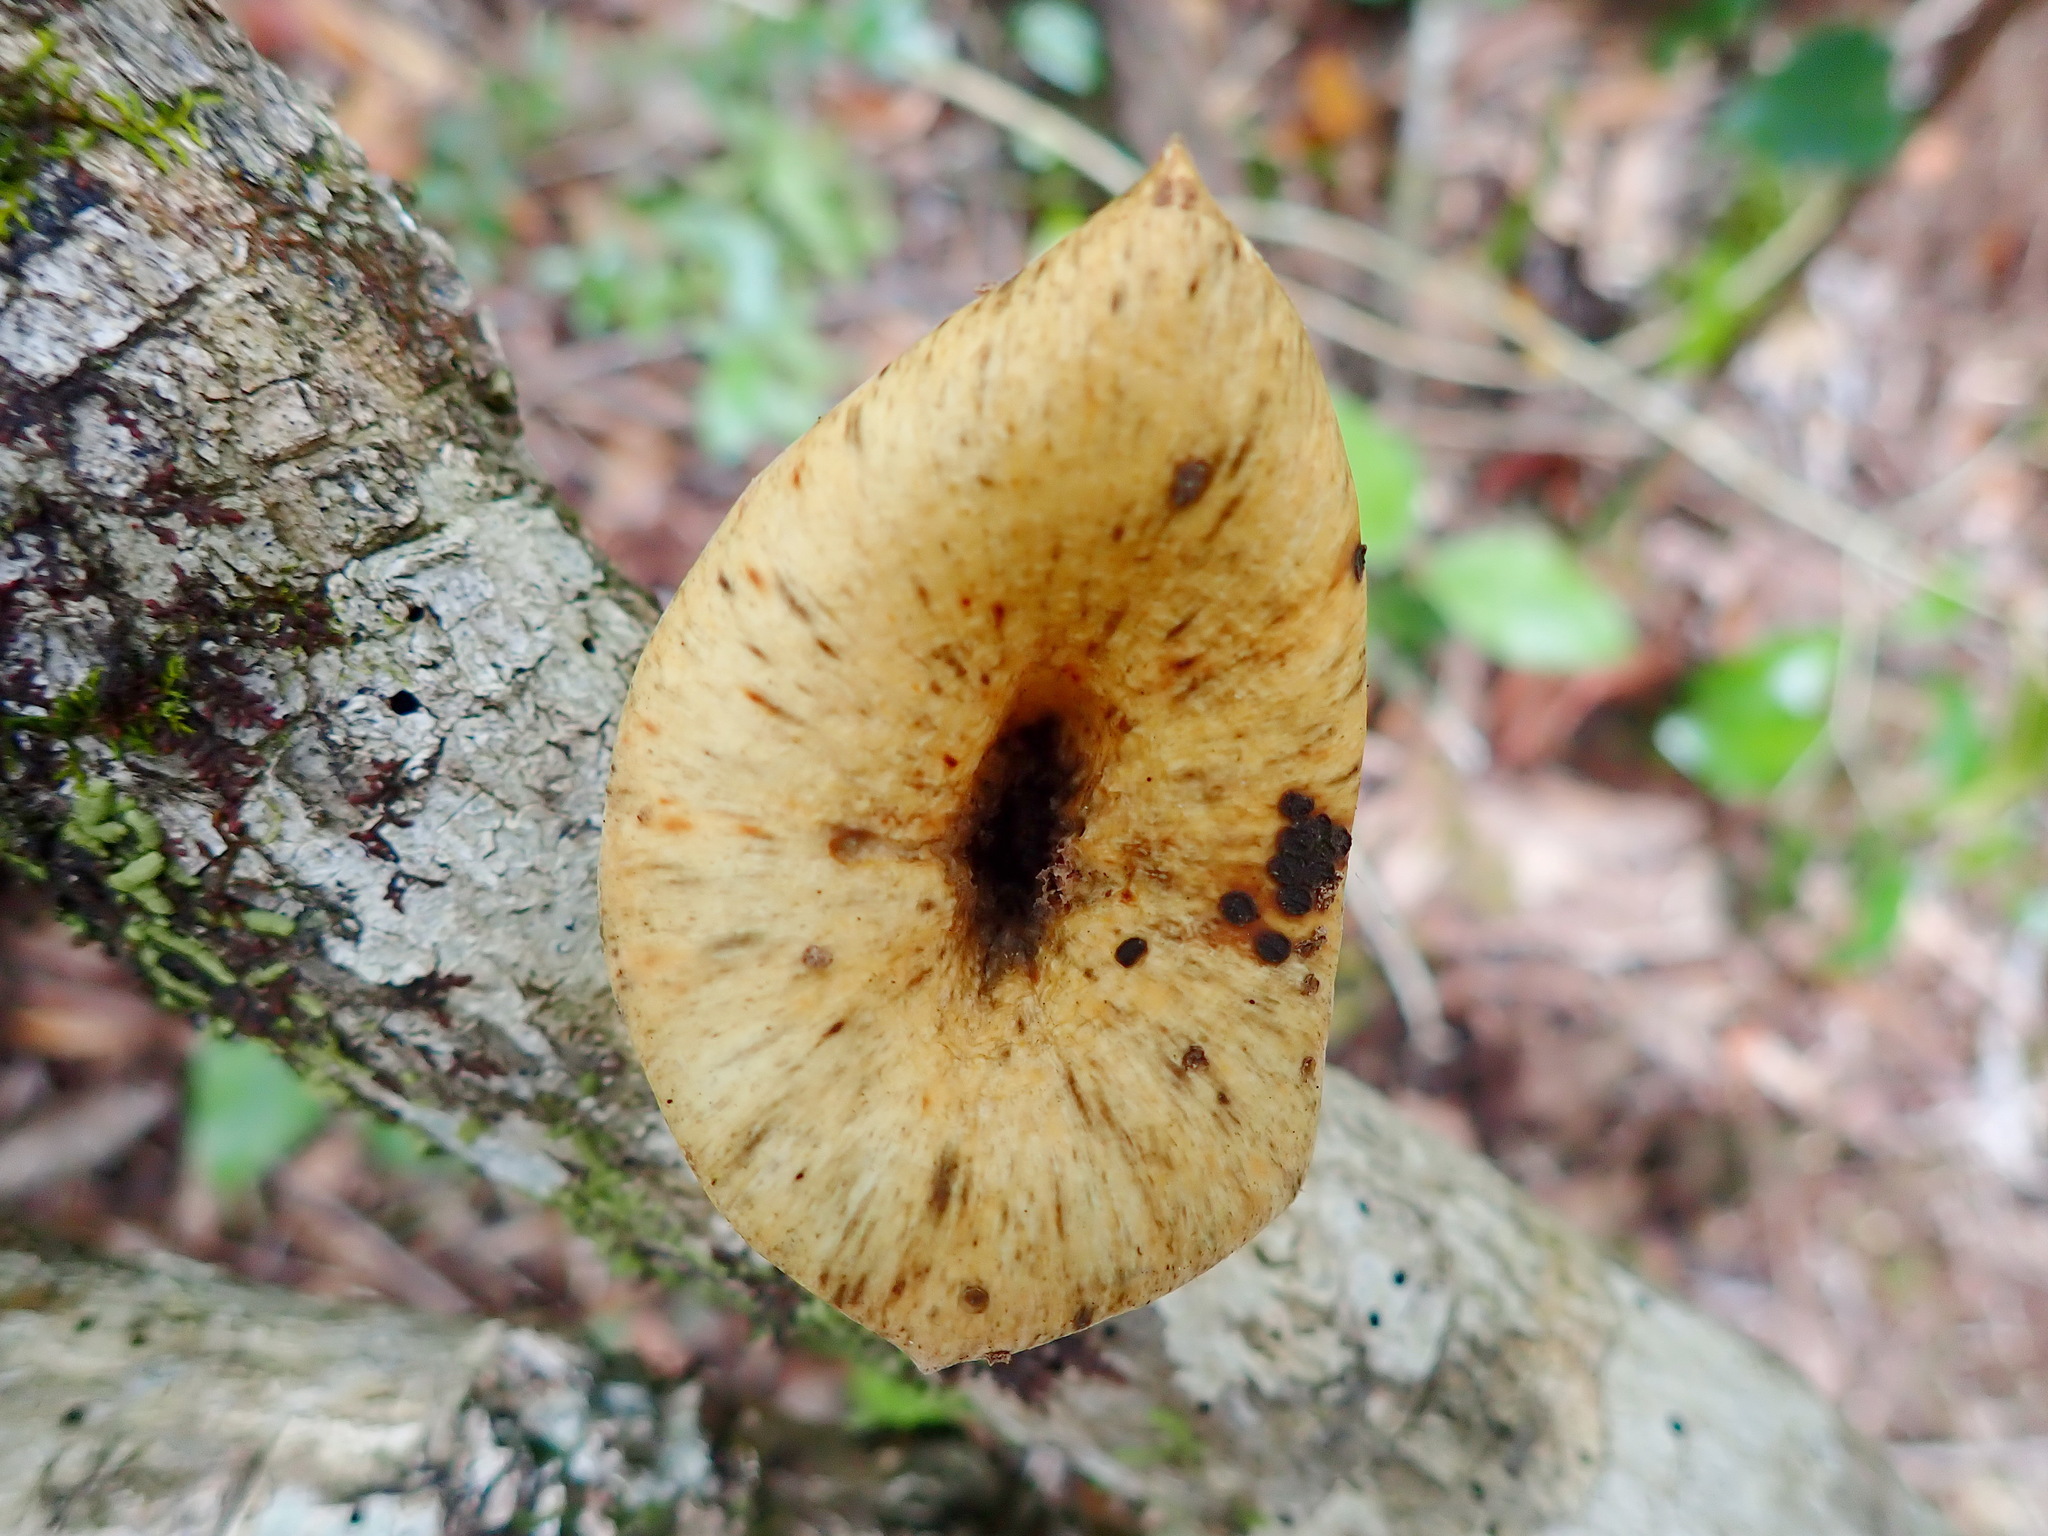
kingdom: Fungi
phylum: Basidiomycota
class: Agaricomycetes
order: Polyporales
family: Polyporaceae
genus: Lentinus
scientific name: Lentinus sajor-caju
